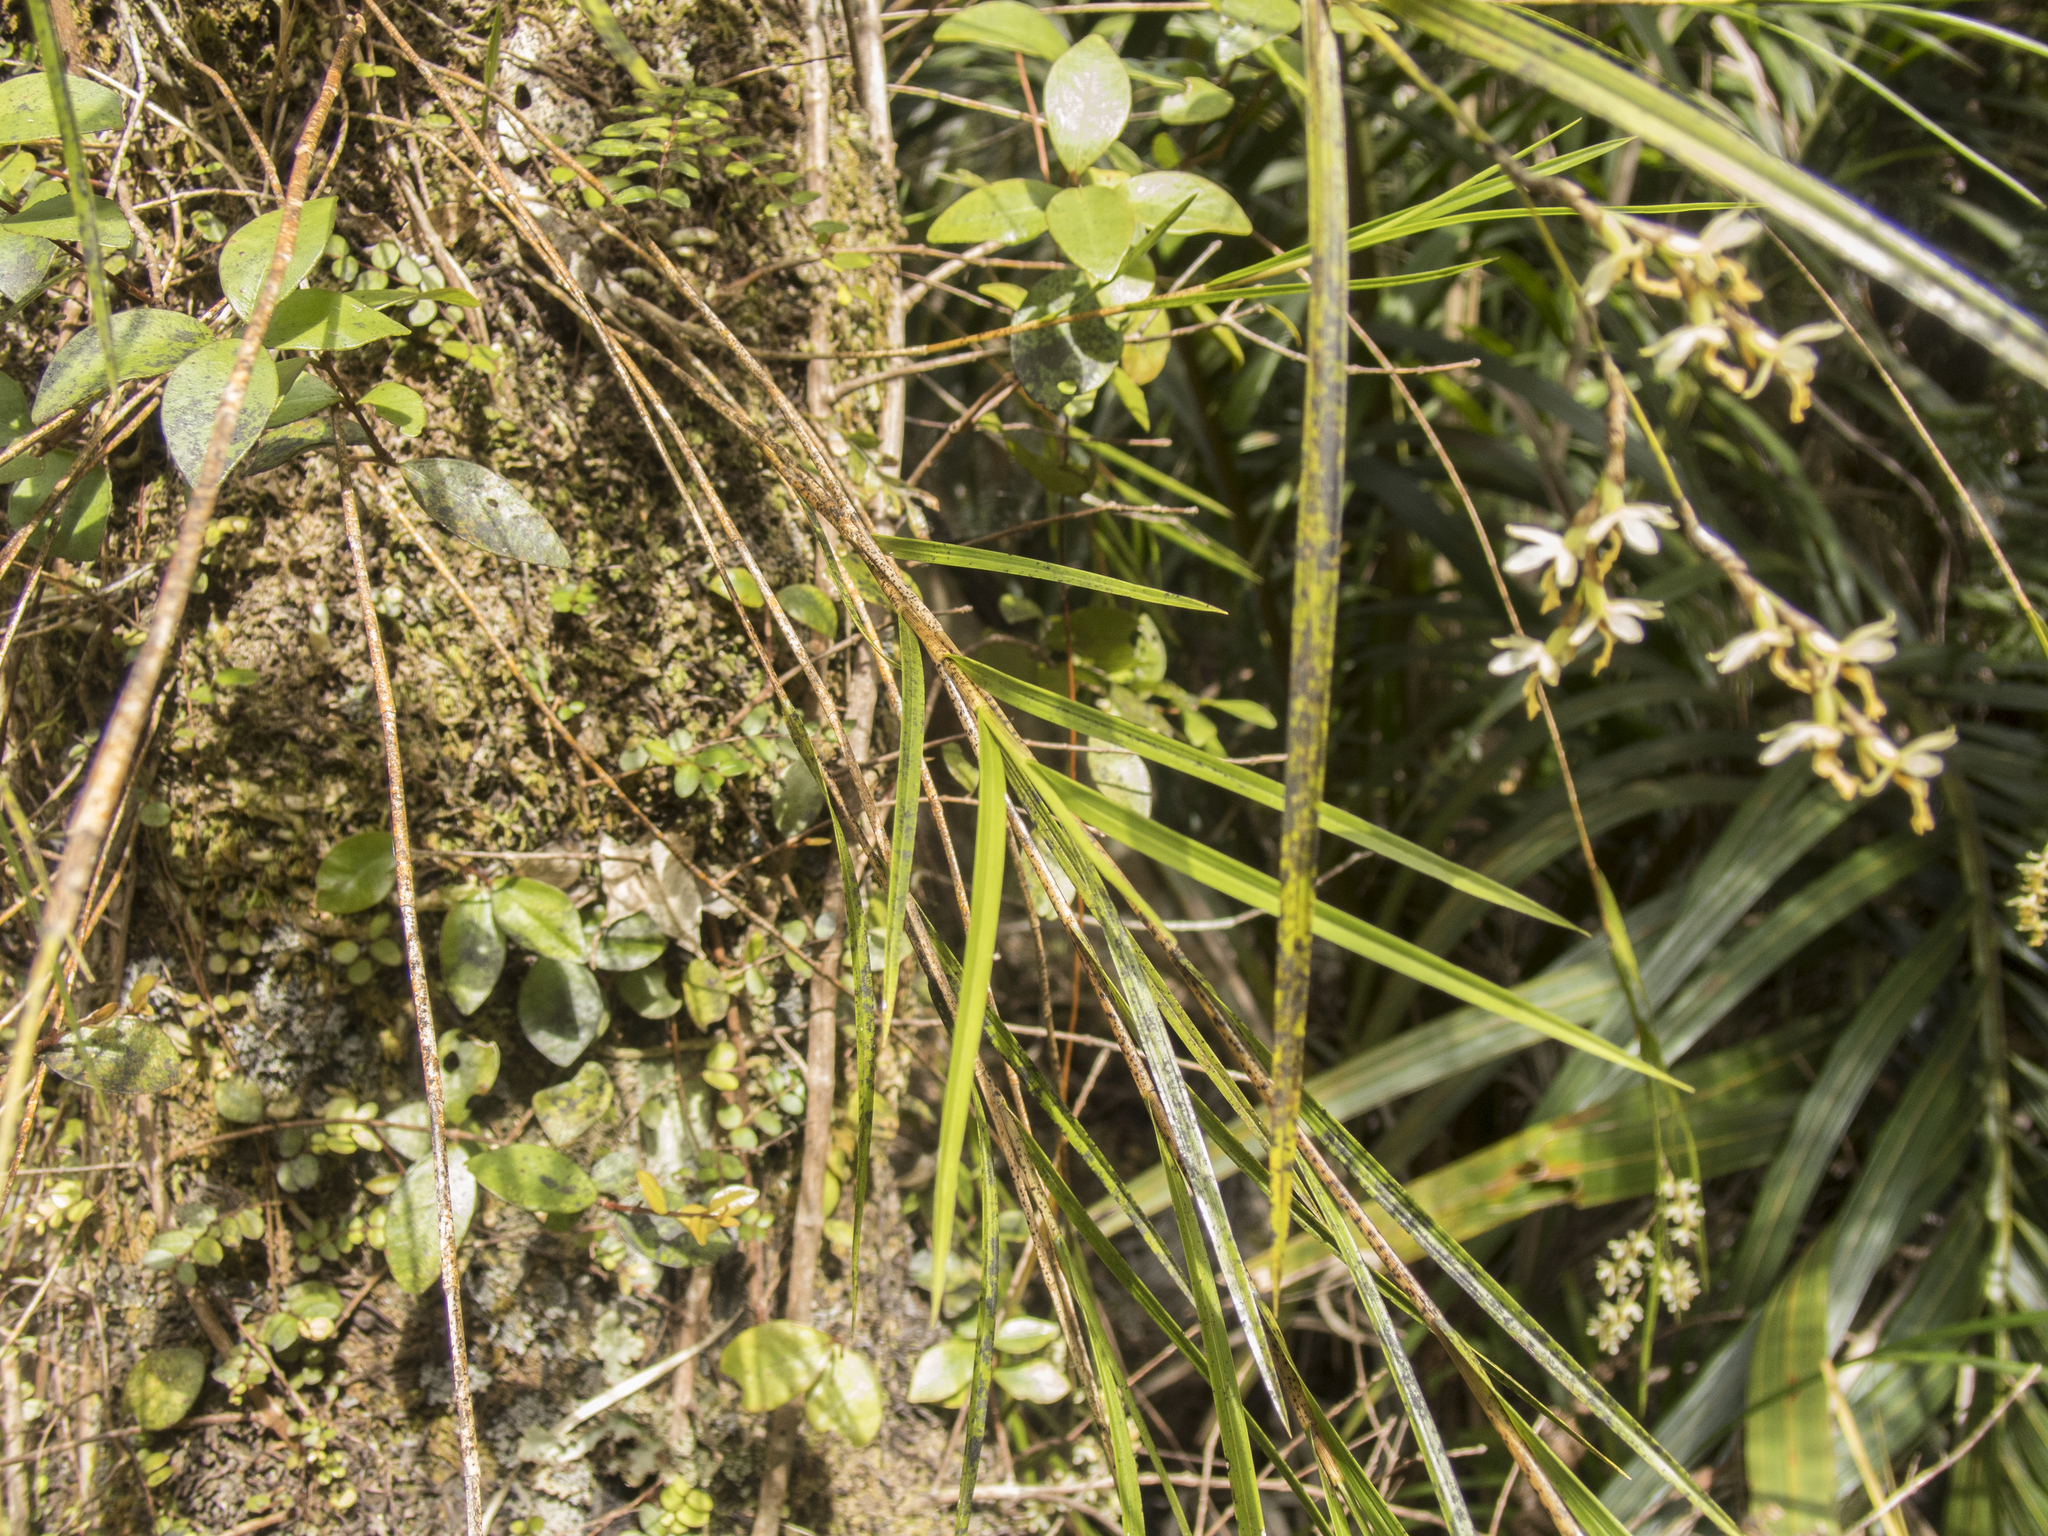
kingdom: Plantae
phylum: Tracheophyta
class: Liliopsida
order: Asparagales
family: Orchidaceae
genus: Earina
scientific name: Earina mucronata
